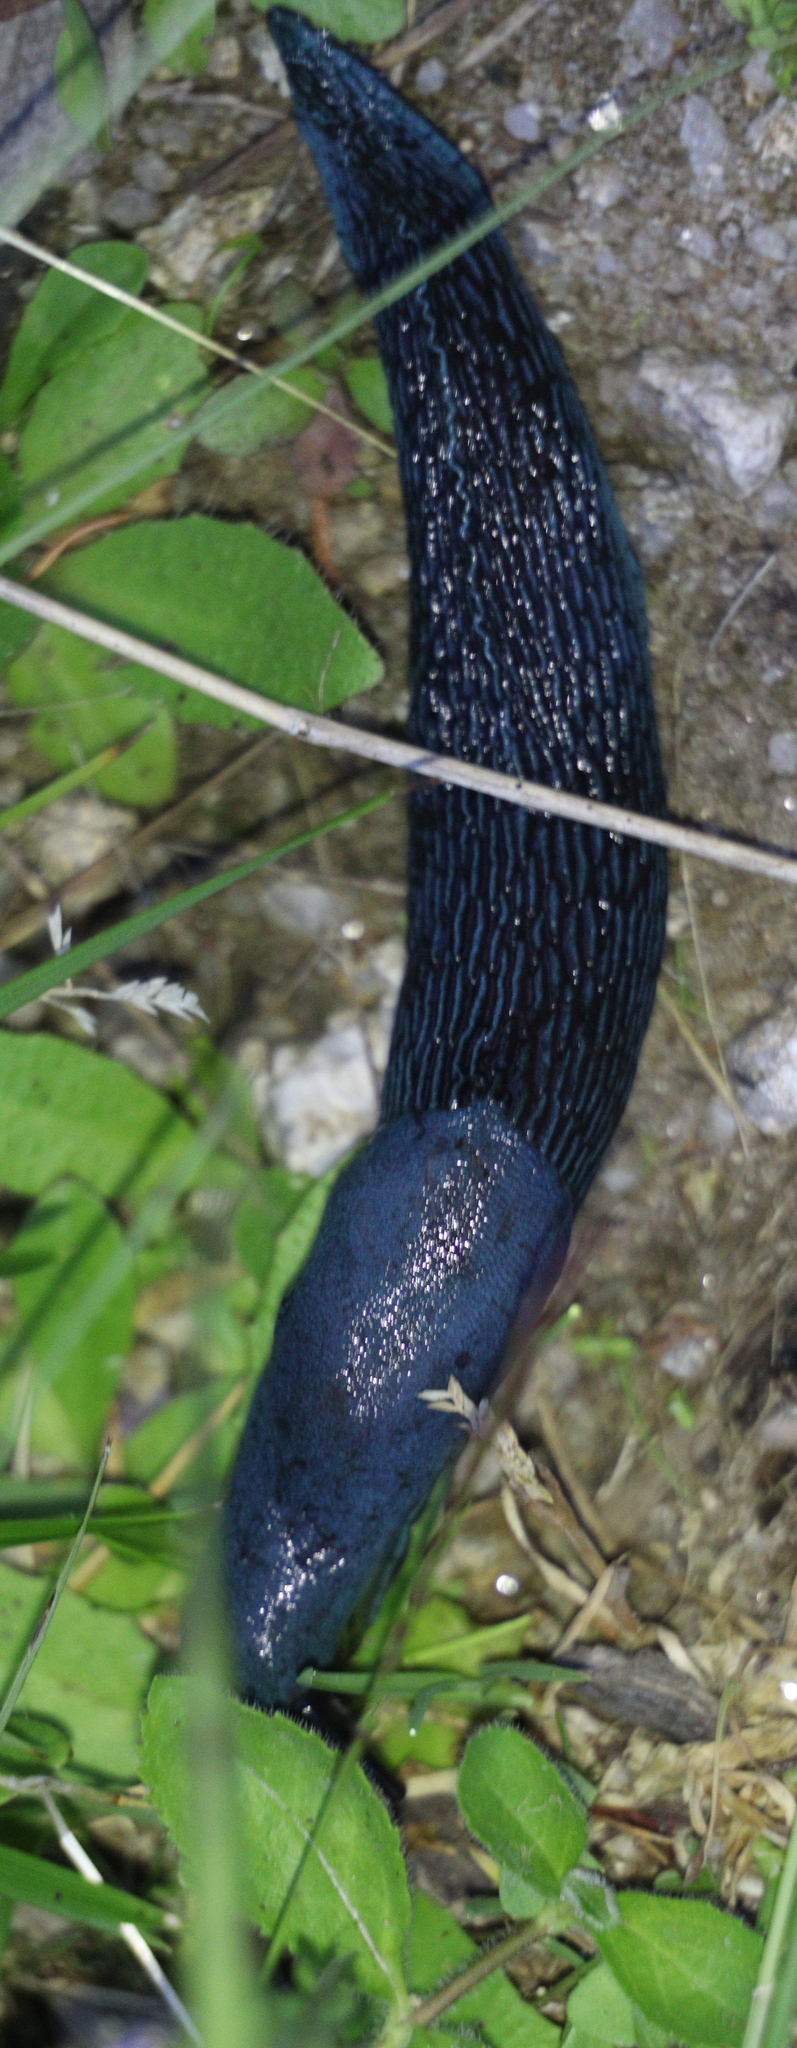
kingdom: Animalia
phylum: Mollusca
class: Gastropoda
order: Stylommatophora
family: Limacidae
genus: Bielzia
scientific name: Bielzia coerulans
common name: Carpathian blue slug
